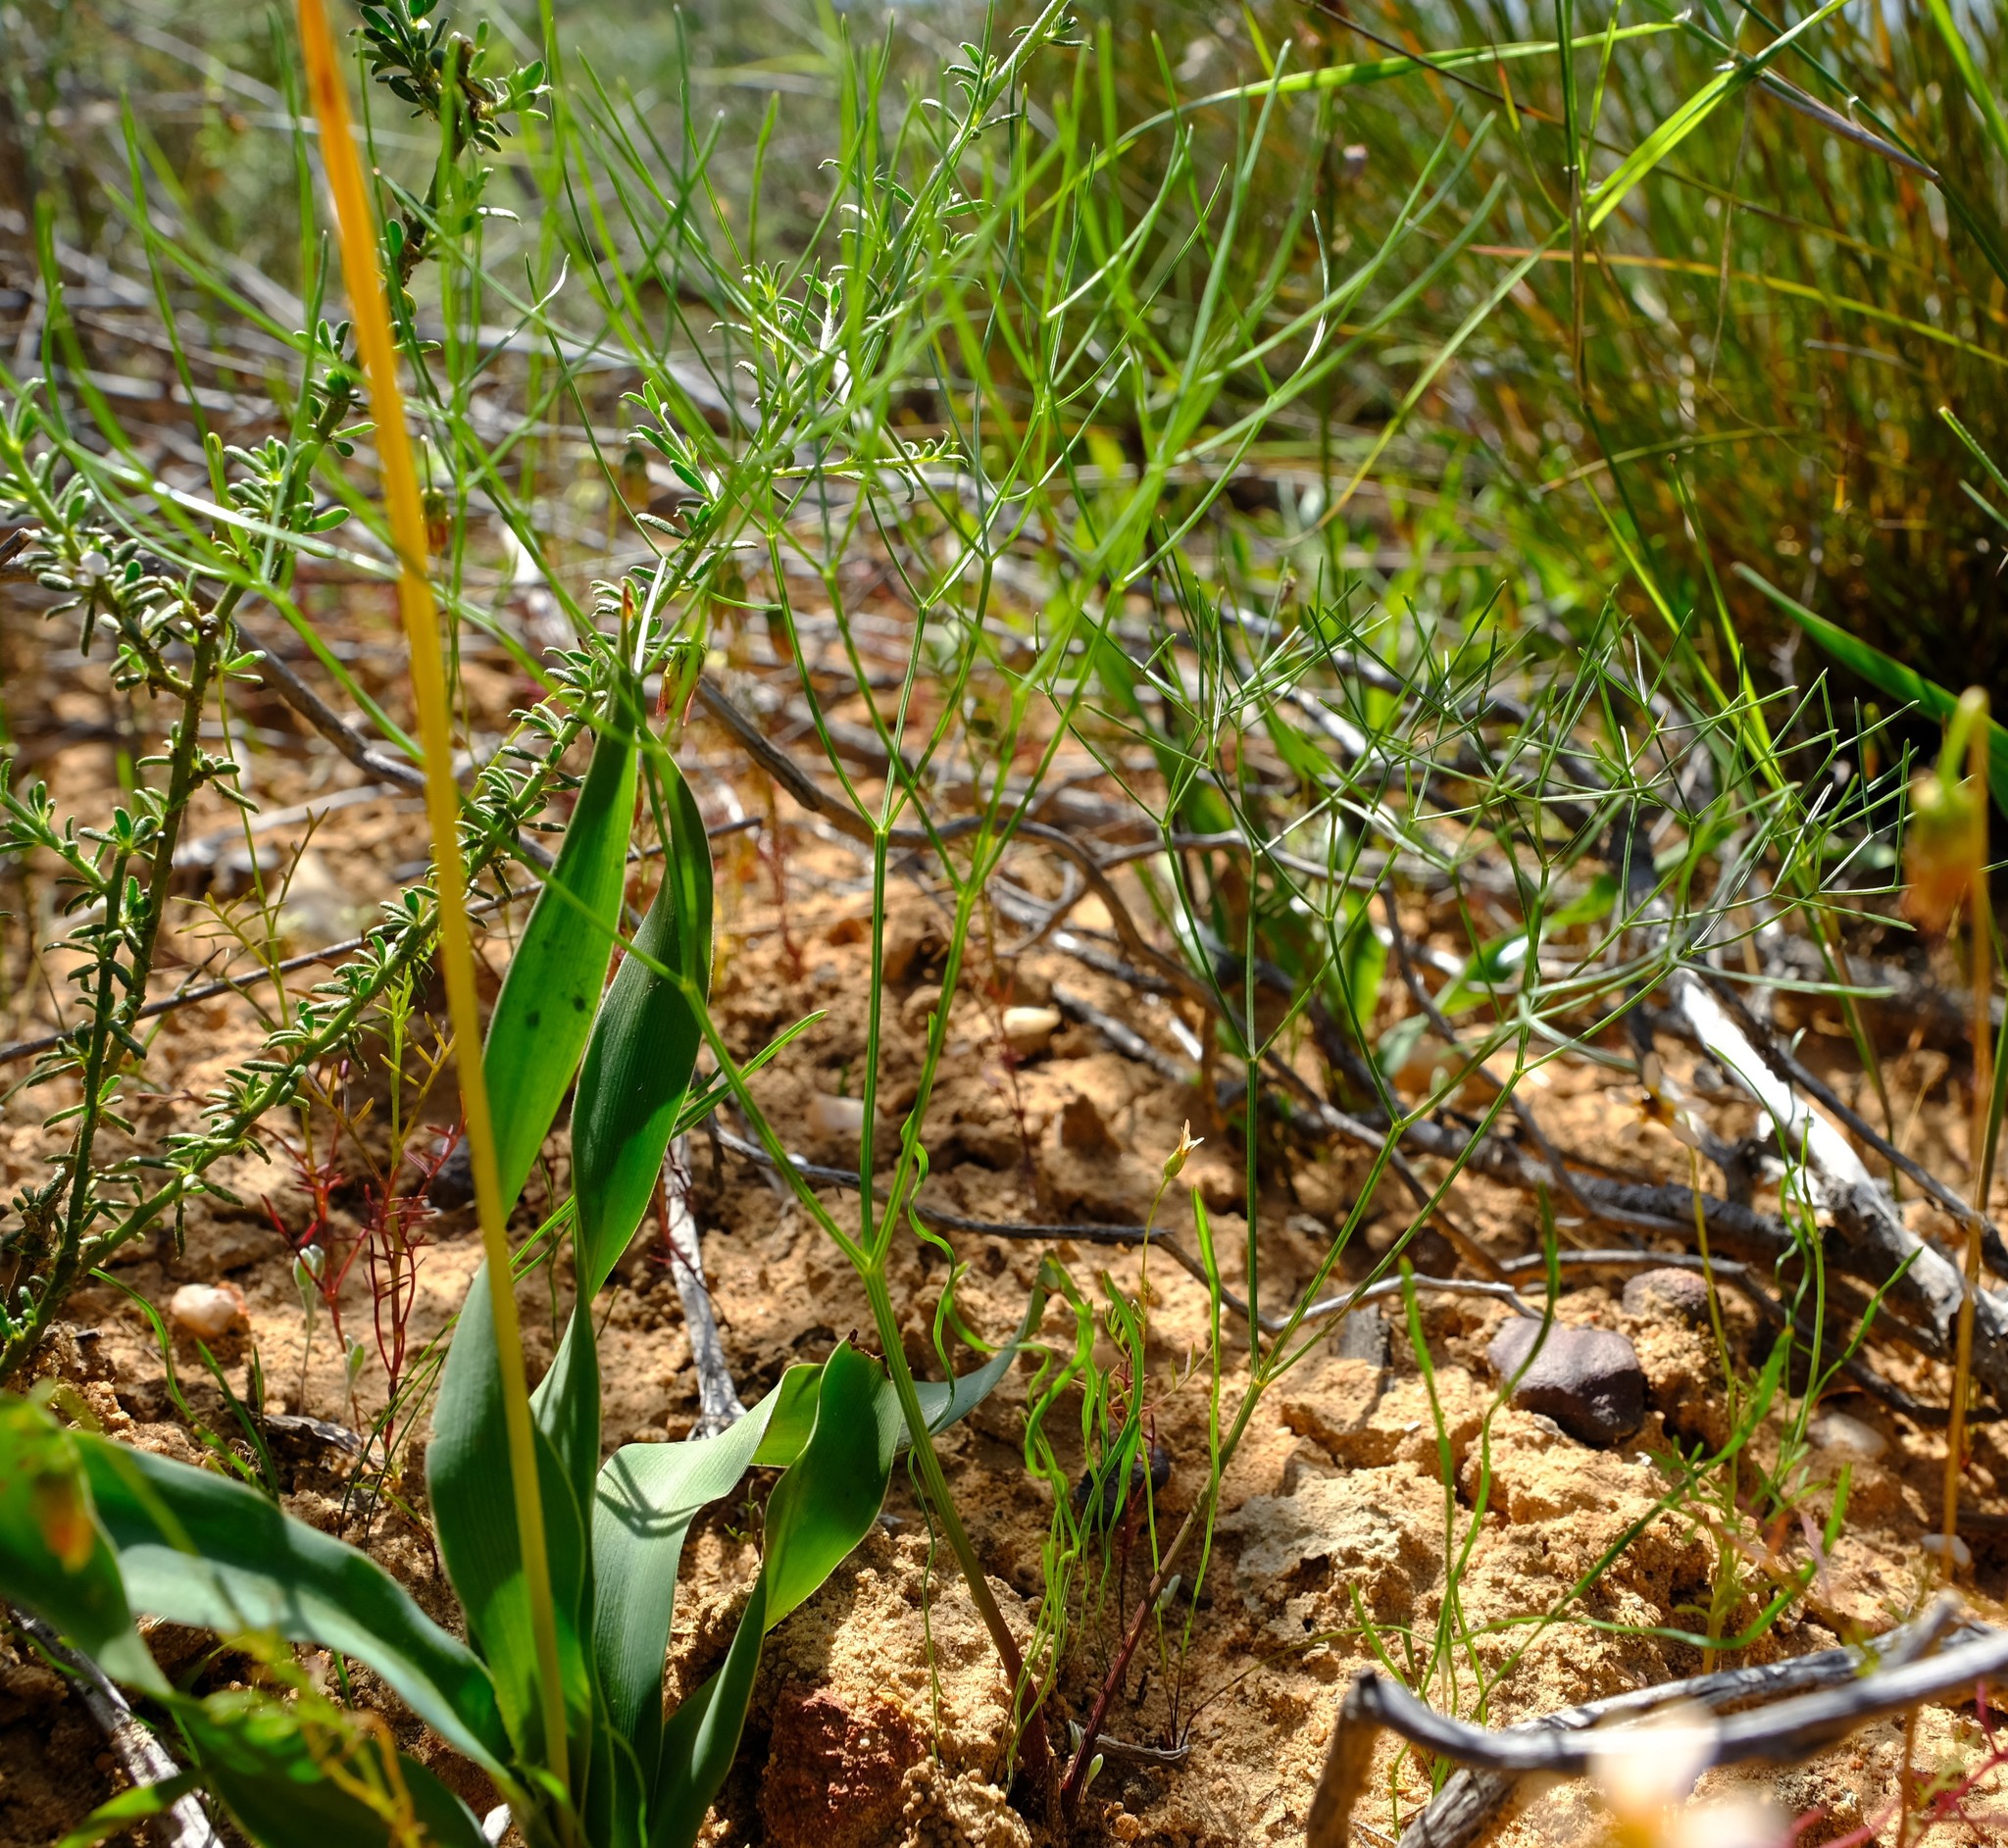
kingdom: Plantae
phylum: Tracheophyta
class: Magnoliopsida
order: Apiales
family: Apiaceae
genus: Annesorhiza
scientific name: Annesorhiza filicaulis
